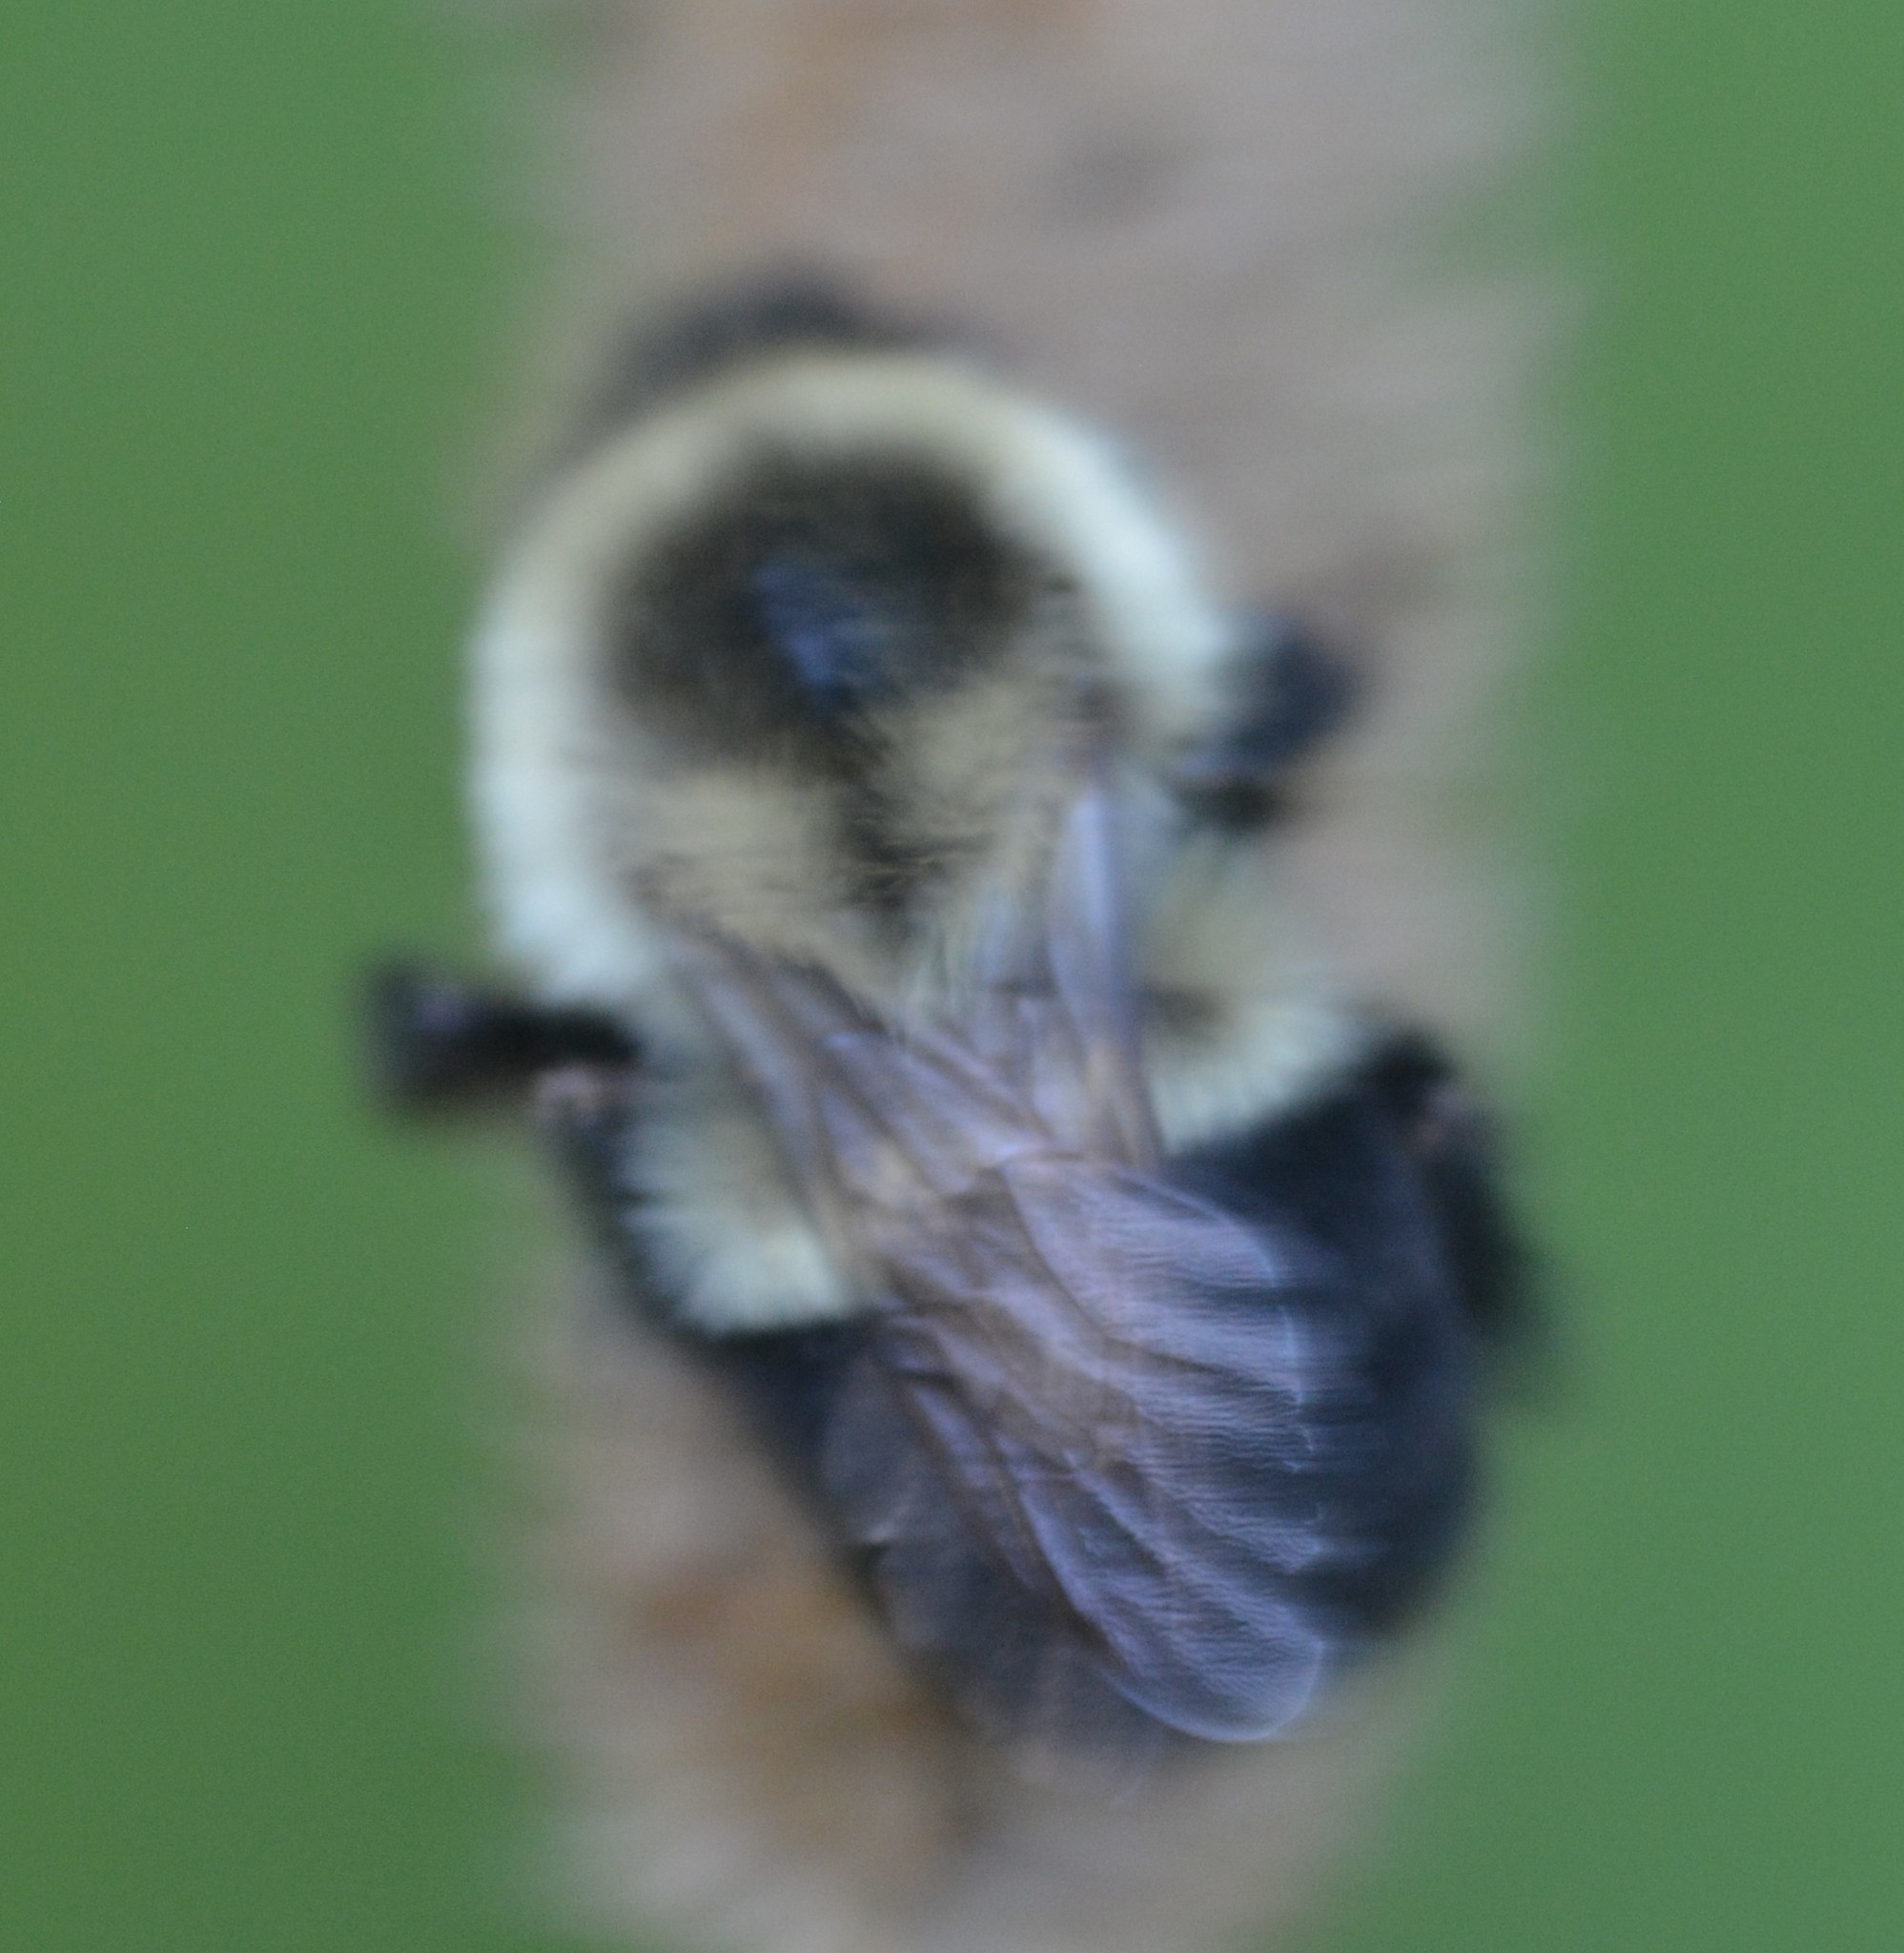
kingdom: Animalia
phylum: Arthropoda
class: Insecta
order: Hymenoptera
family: Apidae
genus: Bombus
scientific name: Bombus impatiens
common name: Common eastern bumble bee
